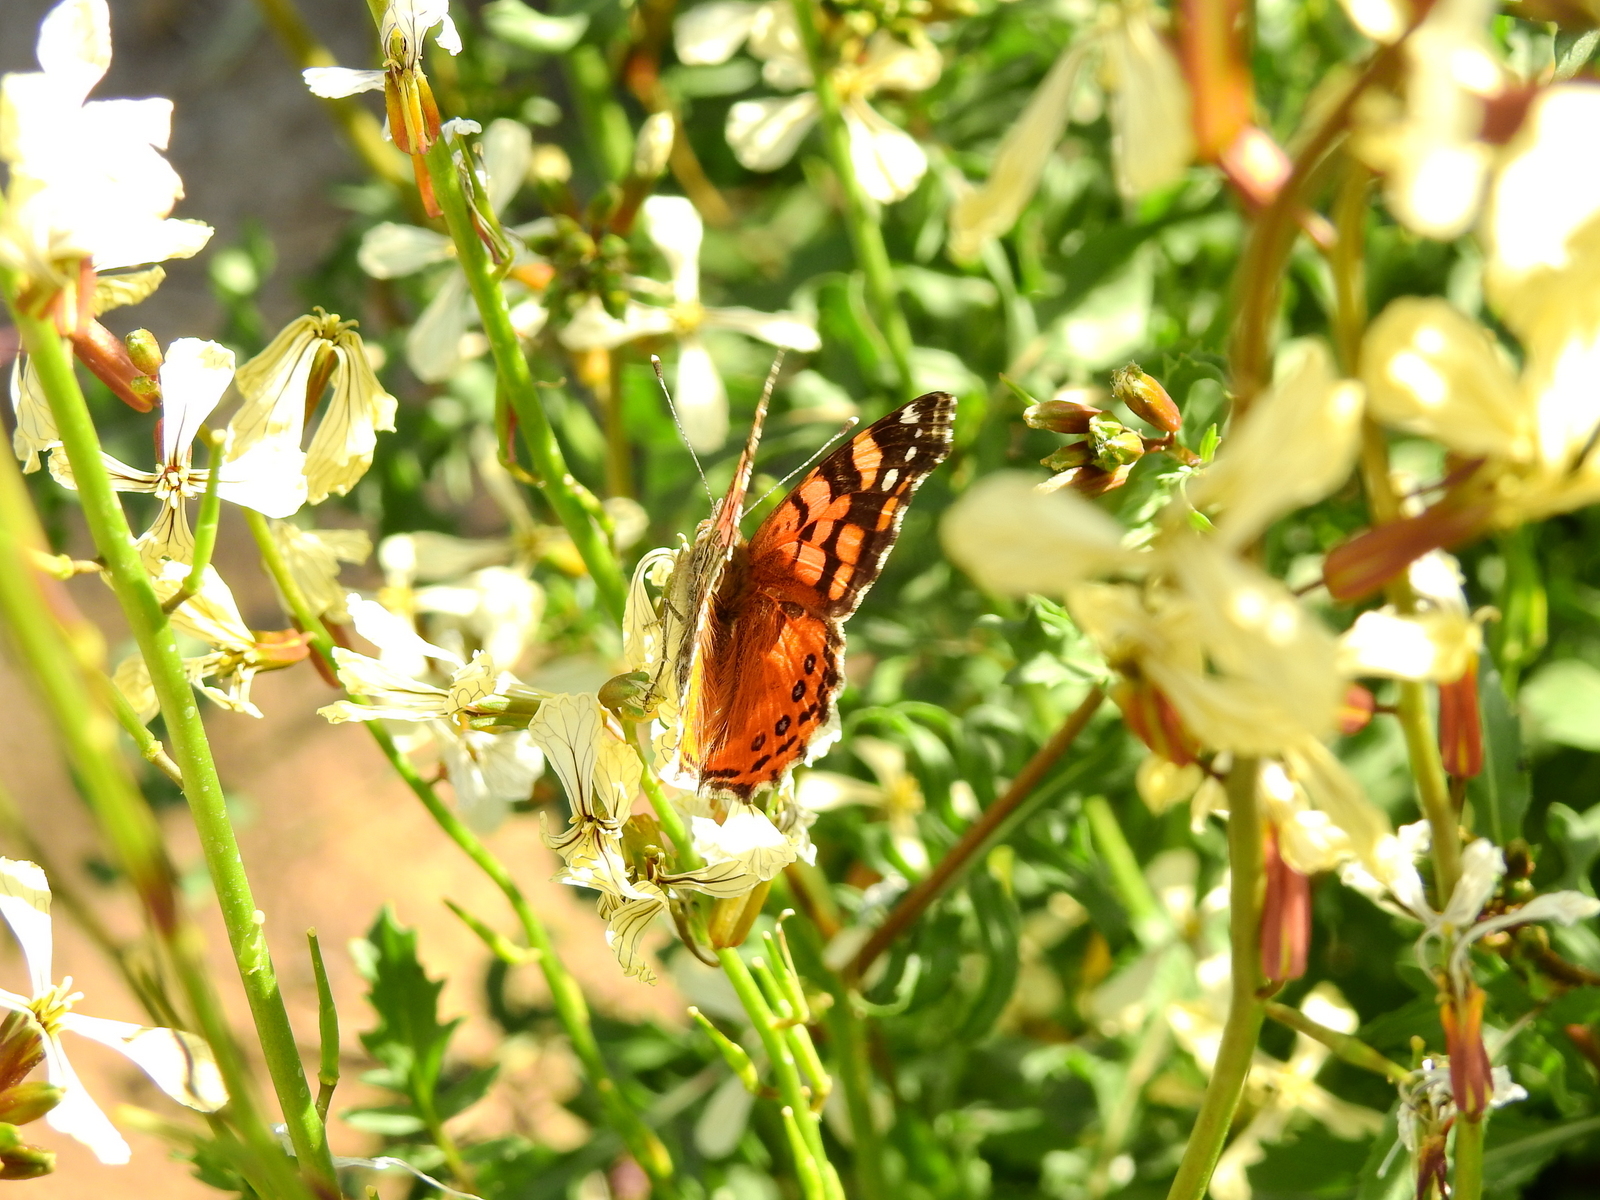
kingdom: Animalia
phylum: Arthropoda
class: Insecta
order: Lepidoptera
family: Nymphalidae
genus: Vanessa
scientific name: Vanessa carye
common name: Subtropical lady
